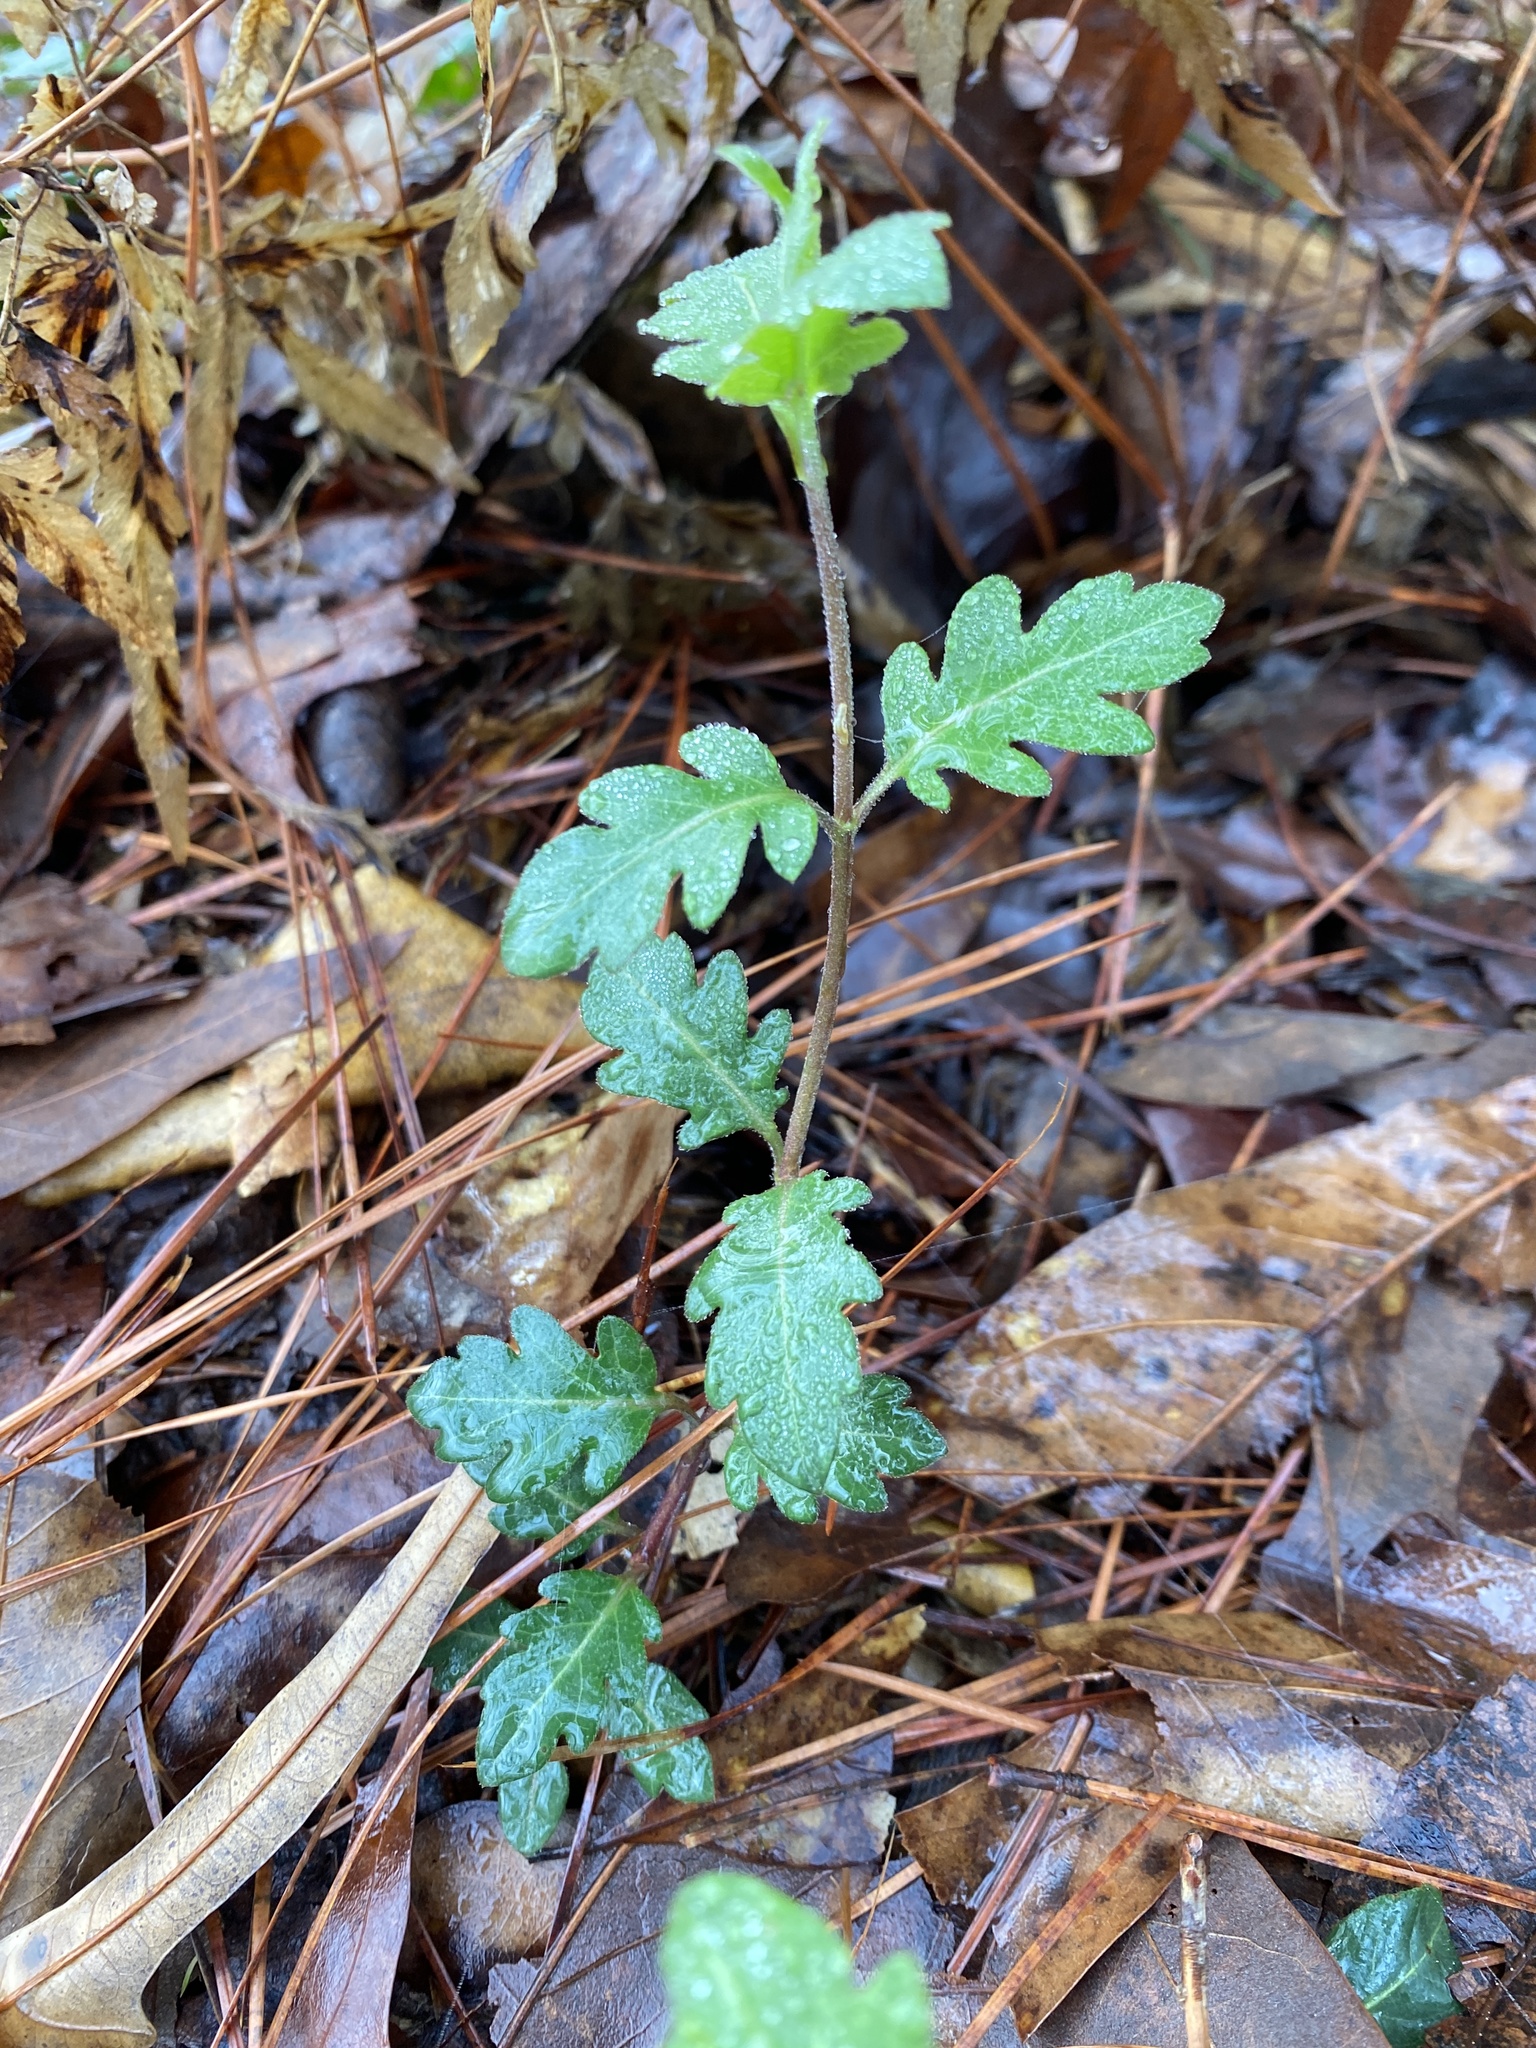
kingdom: Plantae
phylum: Tracheophyta
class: Magnoliopsida
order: Dipsacales
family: Caprifoliaceae
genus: Lonicera
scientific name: Lonicera japonica
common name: Japanese honeysuckle
